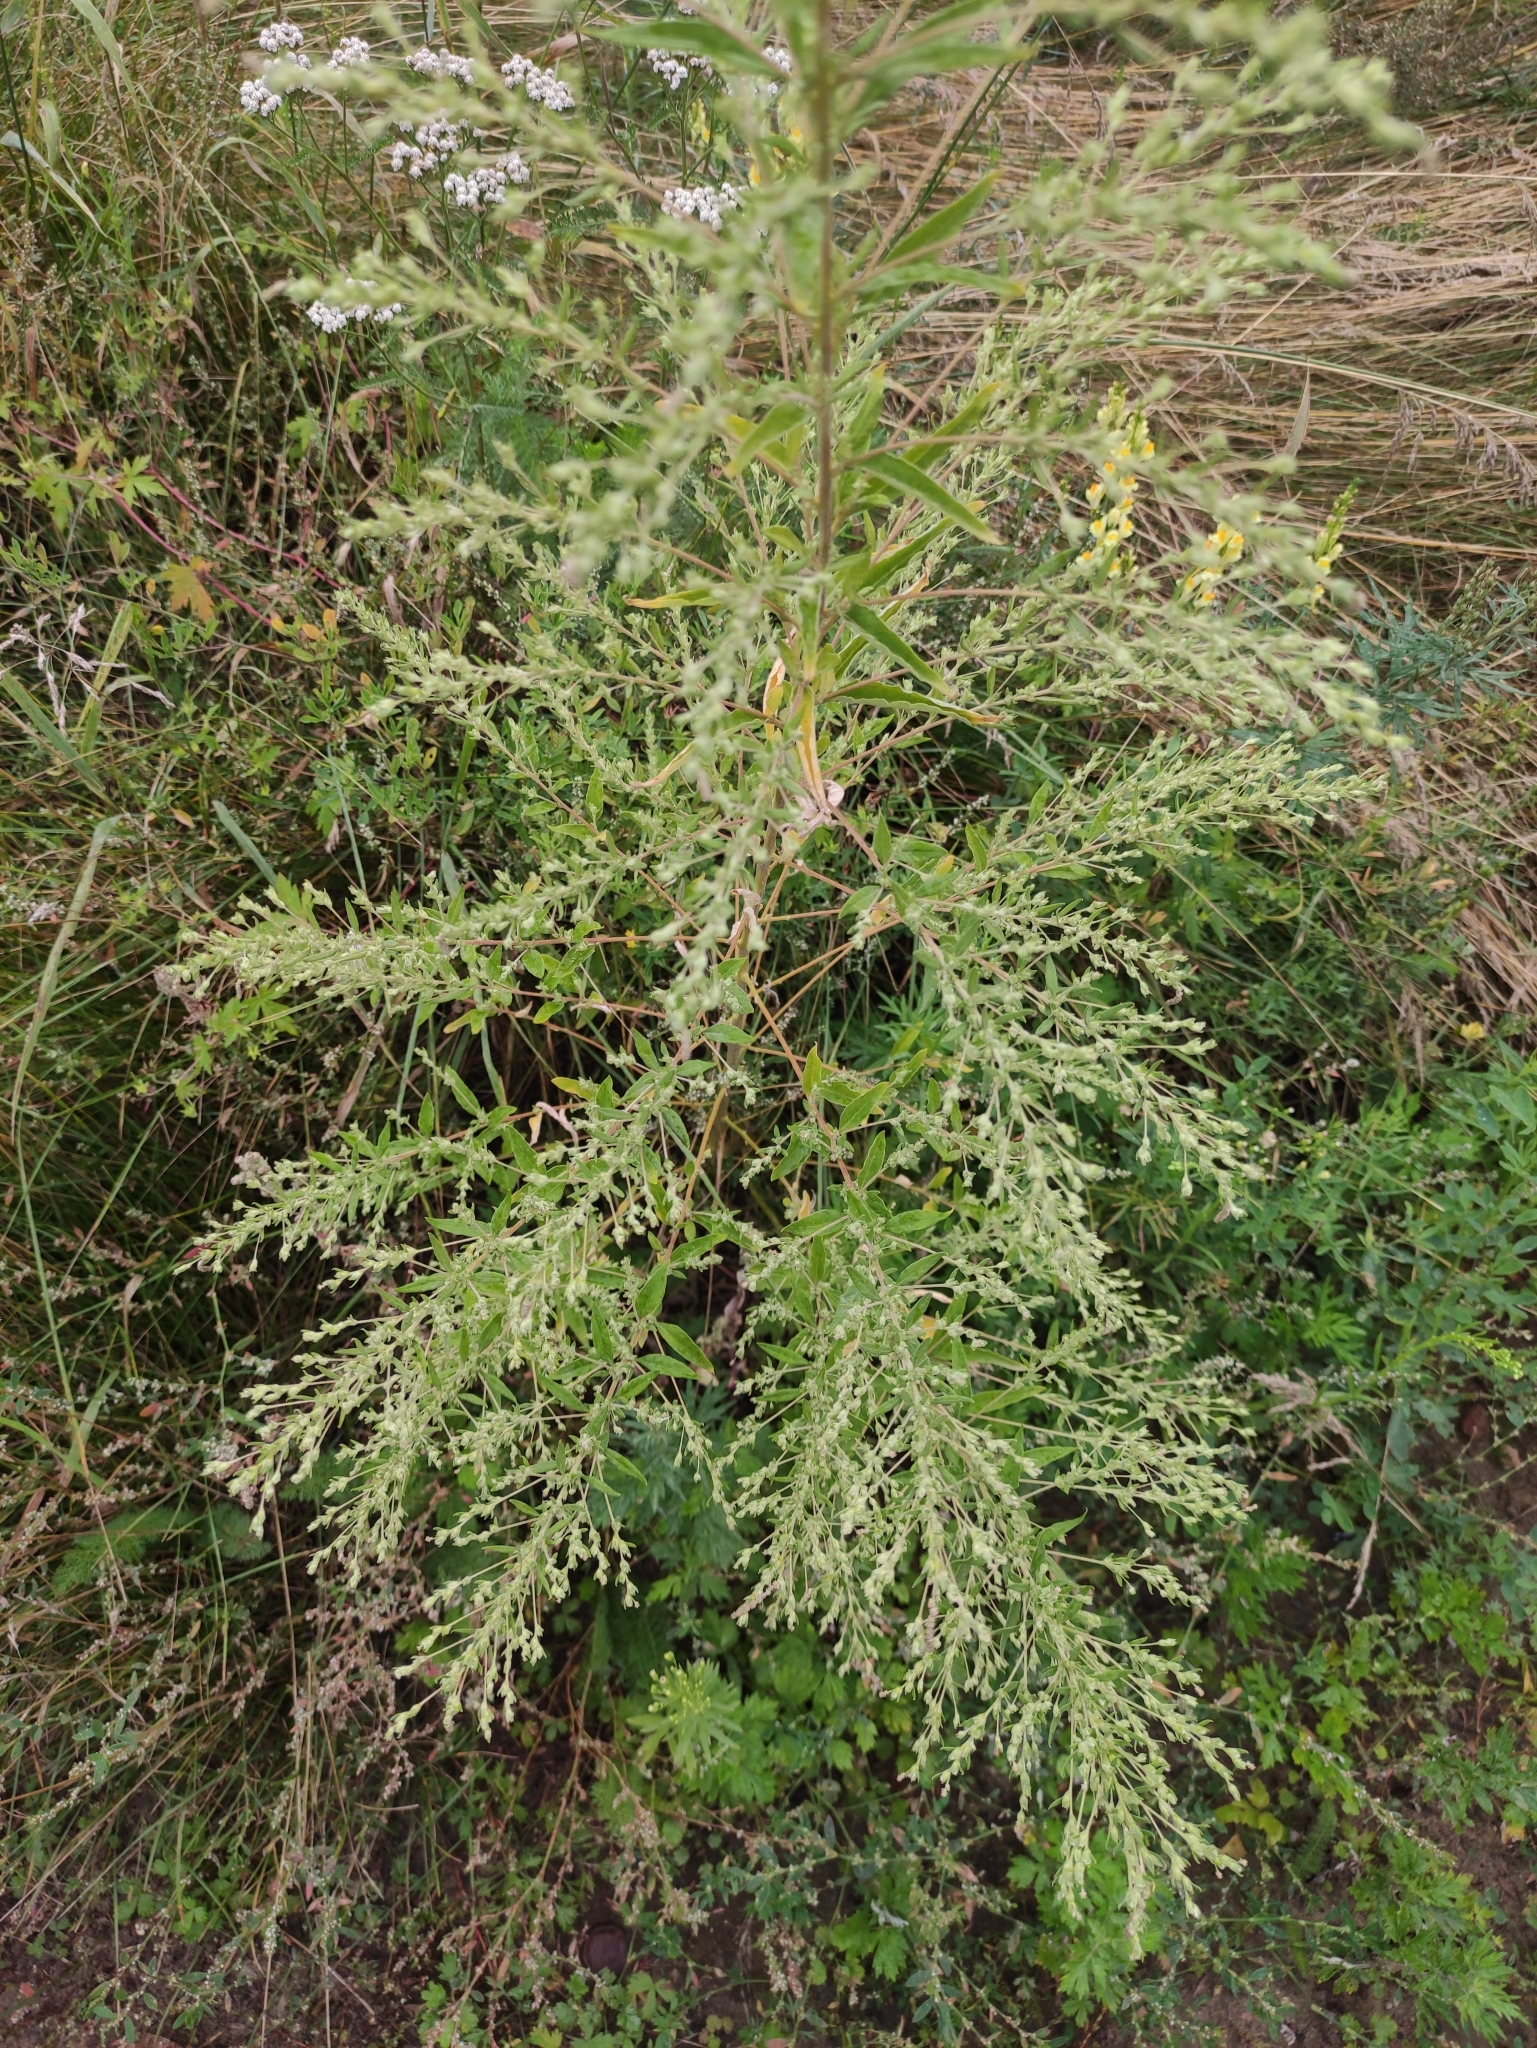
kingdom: Plantae
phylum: Tracheophyta
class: Magnoliopsida
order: Caryophyllales
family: Amaranthaceae
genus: Axyris
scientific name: Axyris hybrida
